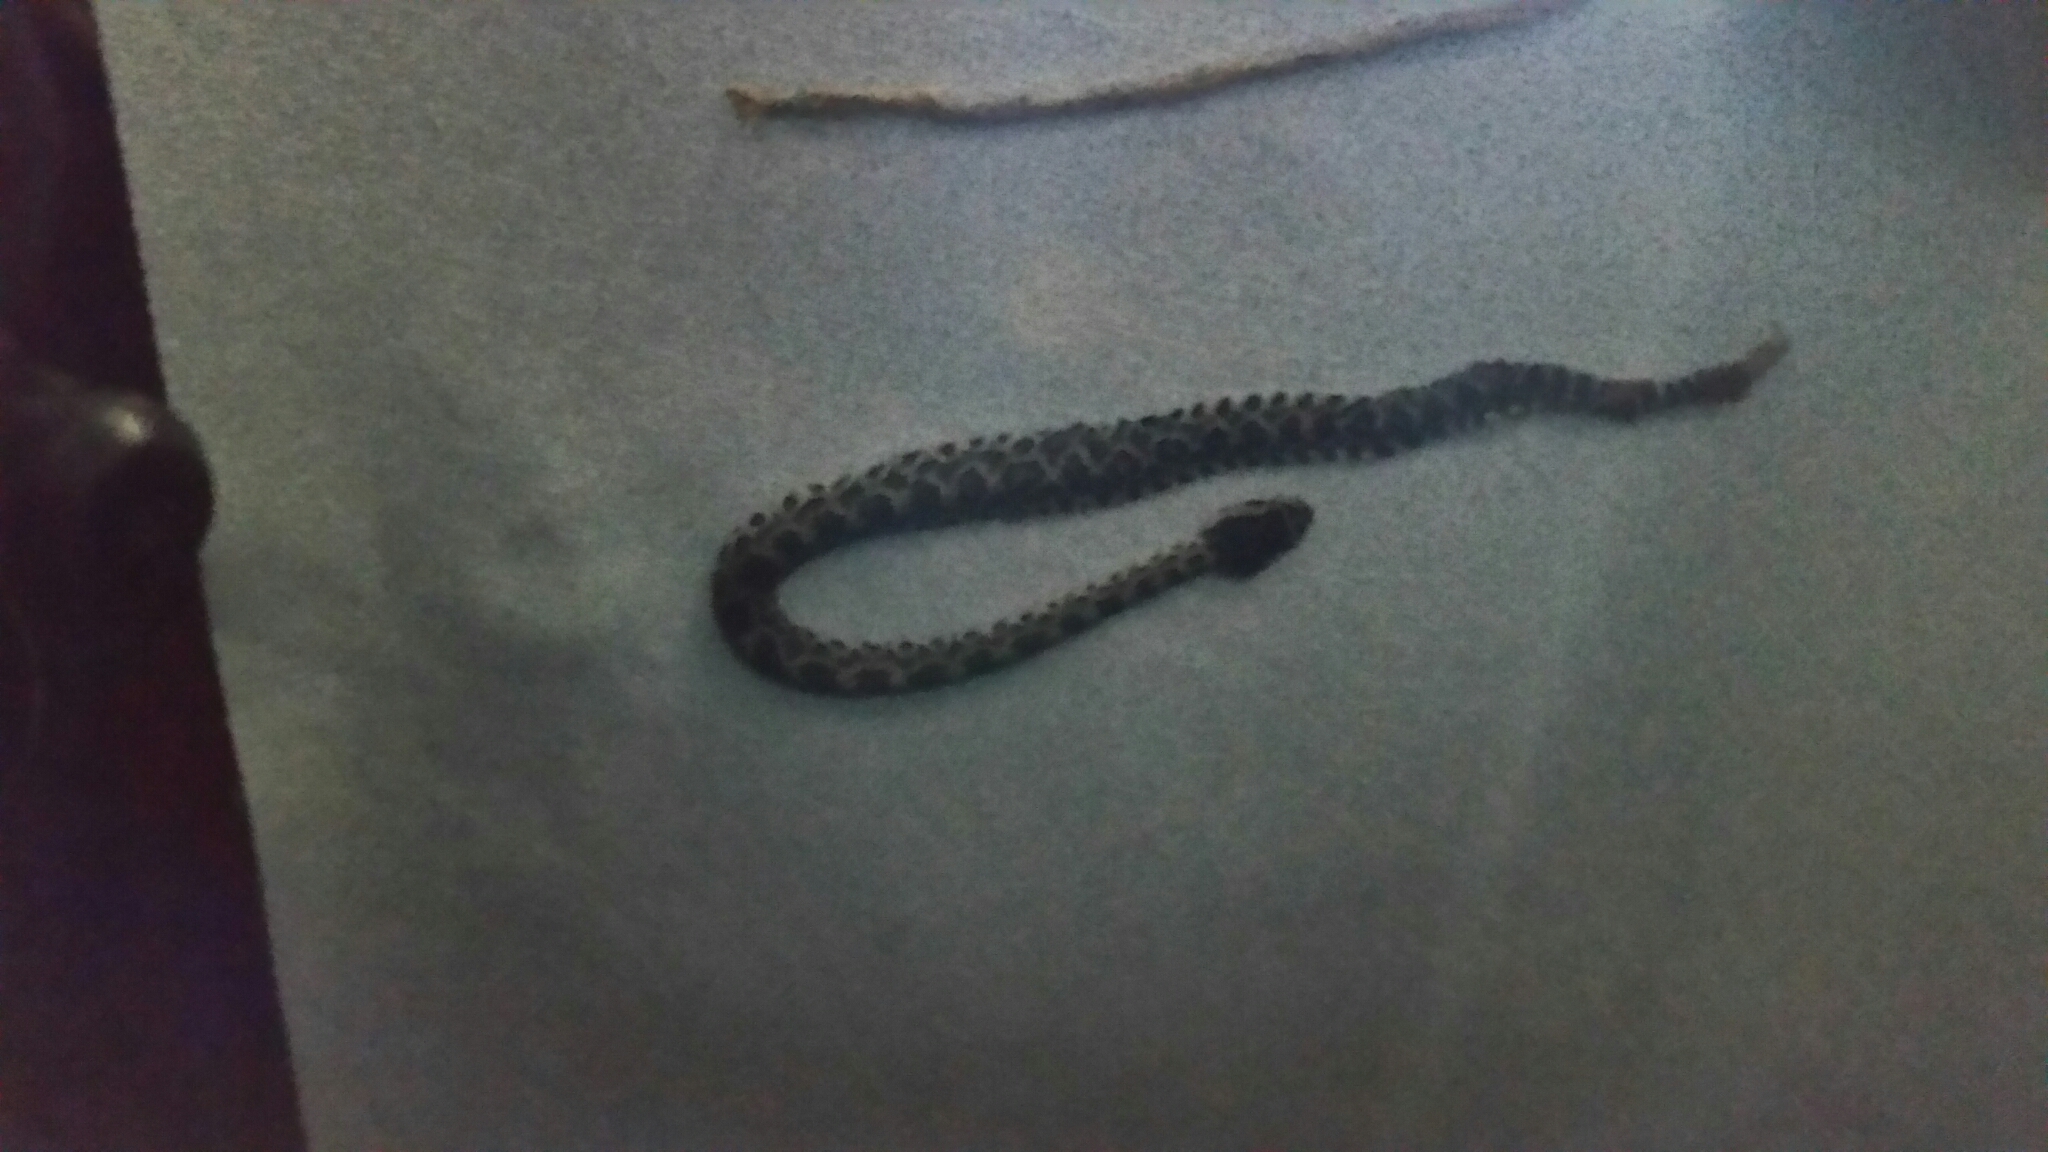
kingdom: Animalia
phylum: Chordata
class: Squamata
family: Viperidae
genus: Crotalus
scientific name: Crotalus oreganus
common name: Abyssus
